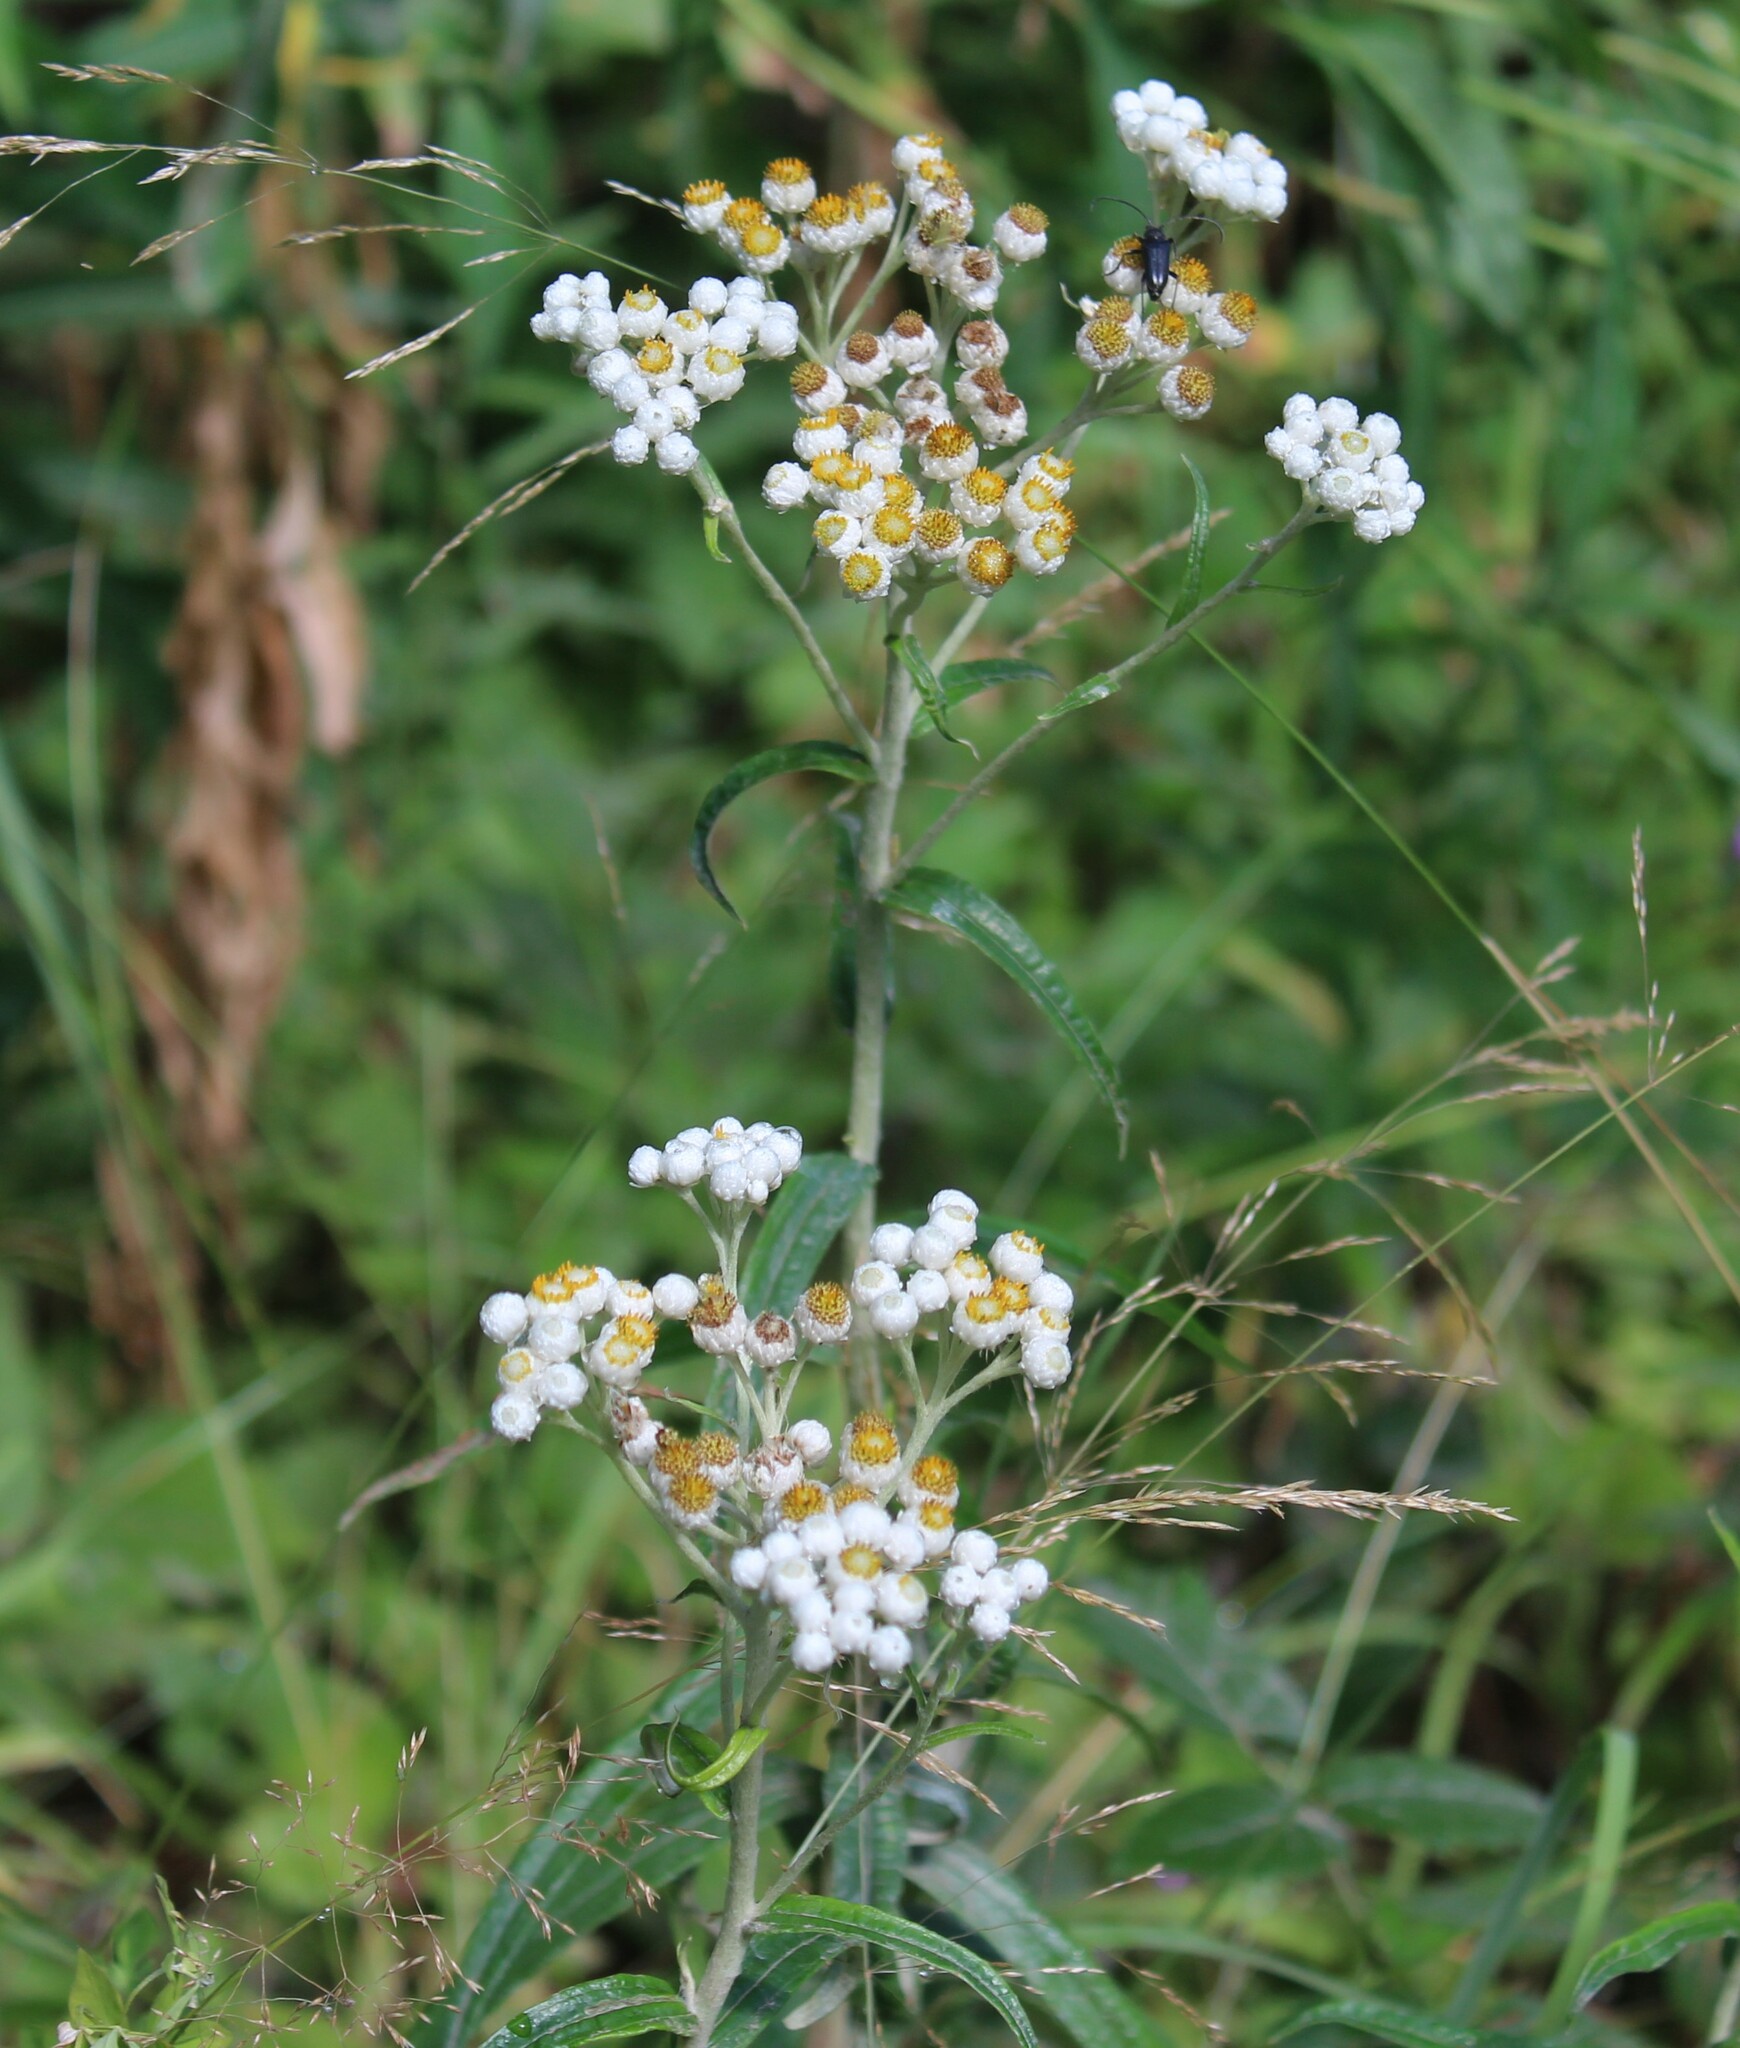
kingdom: Plantae
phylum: Tracheophyta
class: Magnoliopsida
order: Asterales
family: Asteraceae
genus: Anaphalis
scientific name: Anaphalis margaritacea
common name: Pearly everlasting
